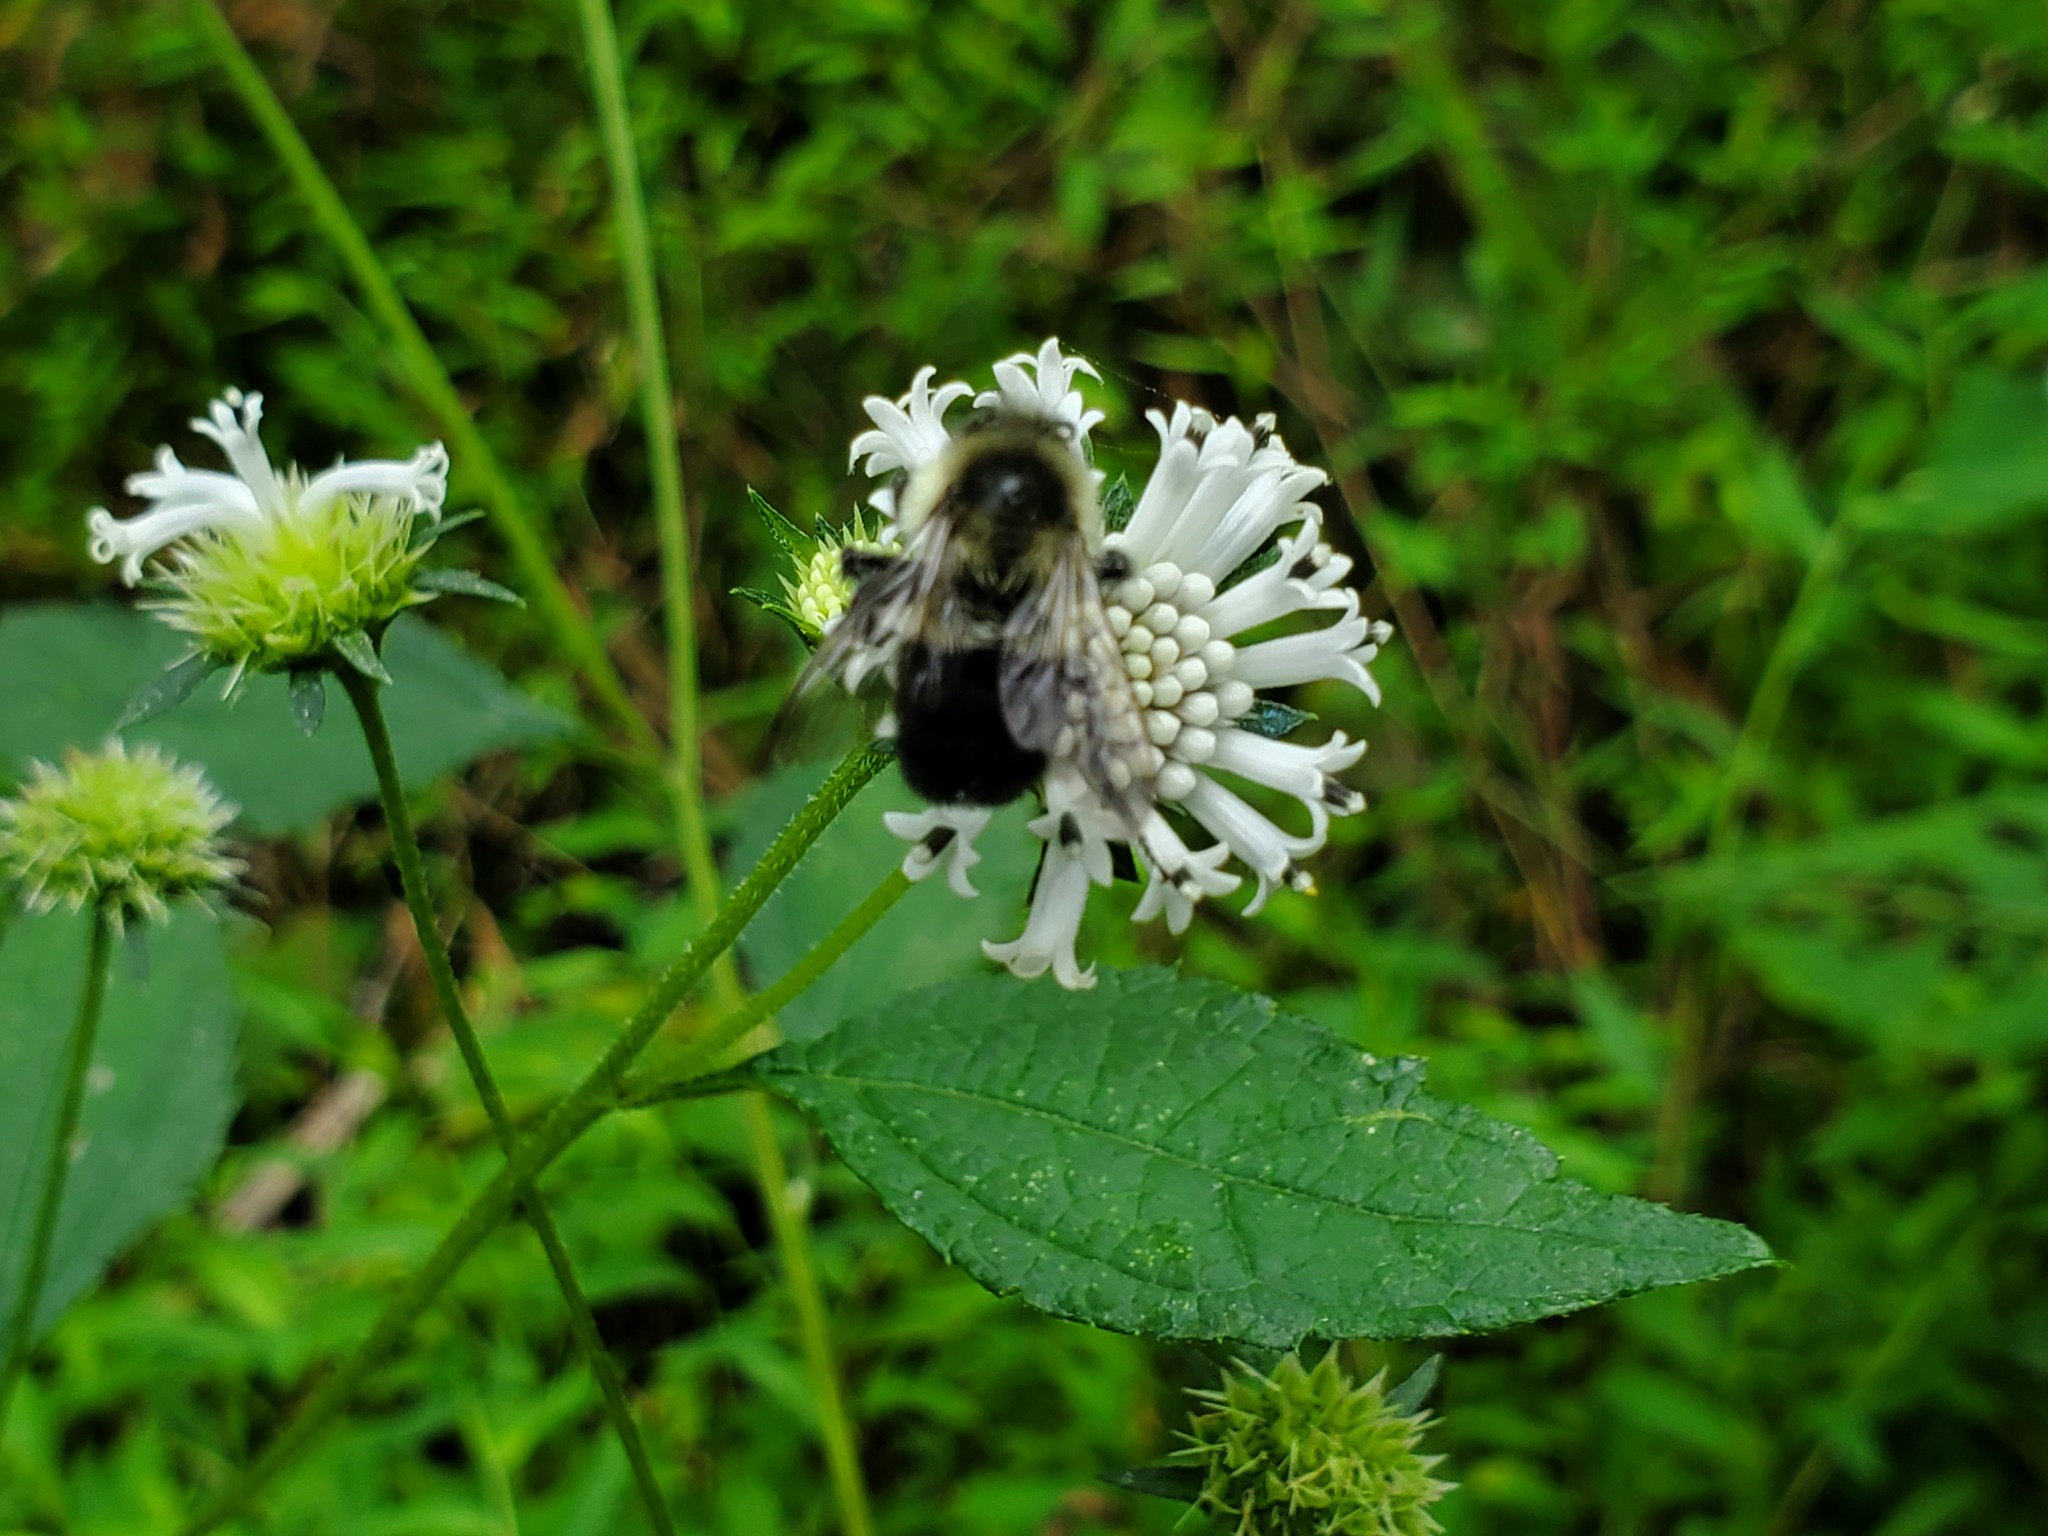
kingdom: Animalia
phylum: Arthropoda
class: Insecta
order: Hymenoptera
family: Apidae
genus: Bombus
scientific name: Bombus impatiens
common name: Common eastern bumble bee
